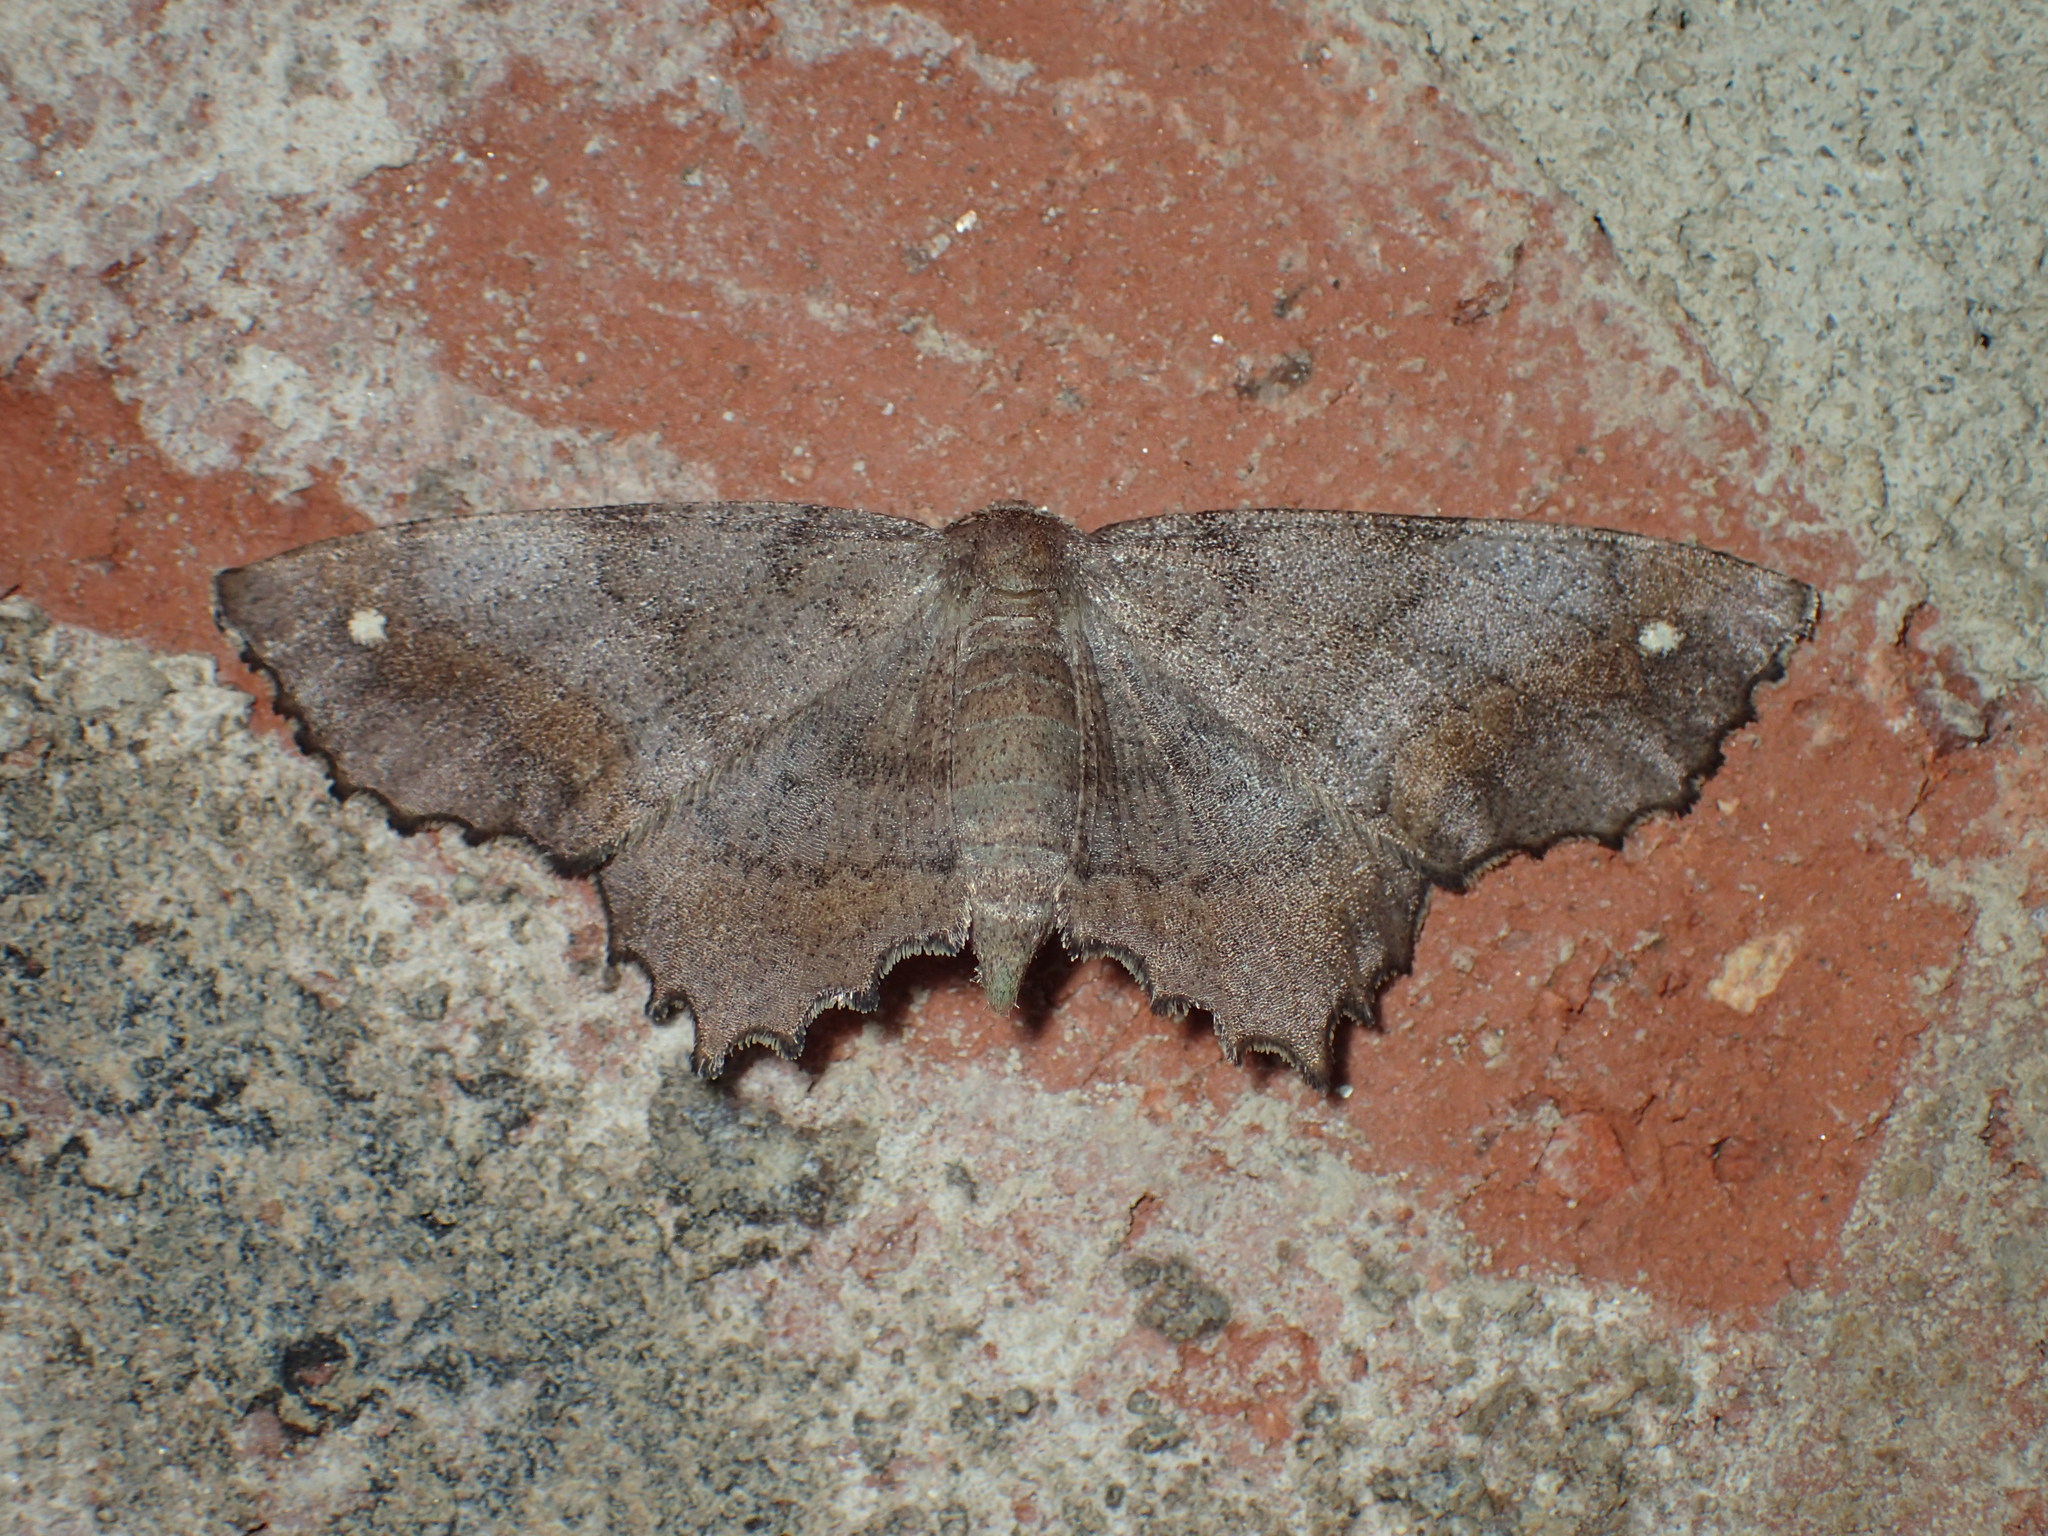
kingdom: Animalia
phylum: Arthropoda
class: Insecta
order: Lepidoptera
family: Geometridae
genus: Hypagyrtis
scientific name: Hypagyrtis
